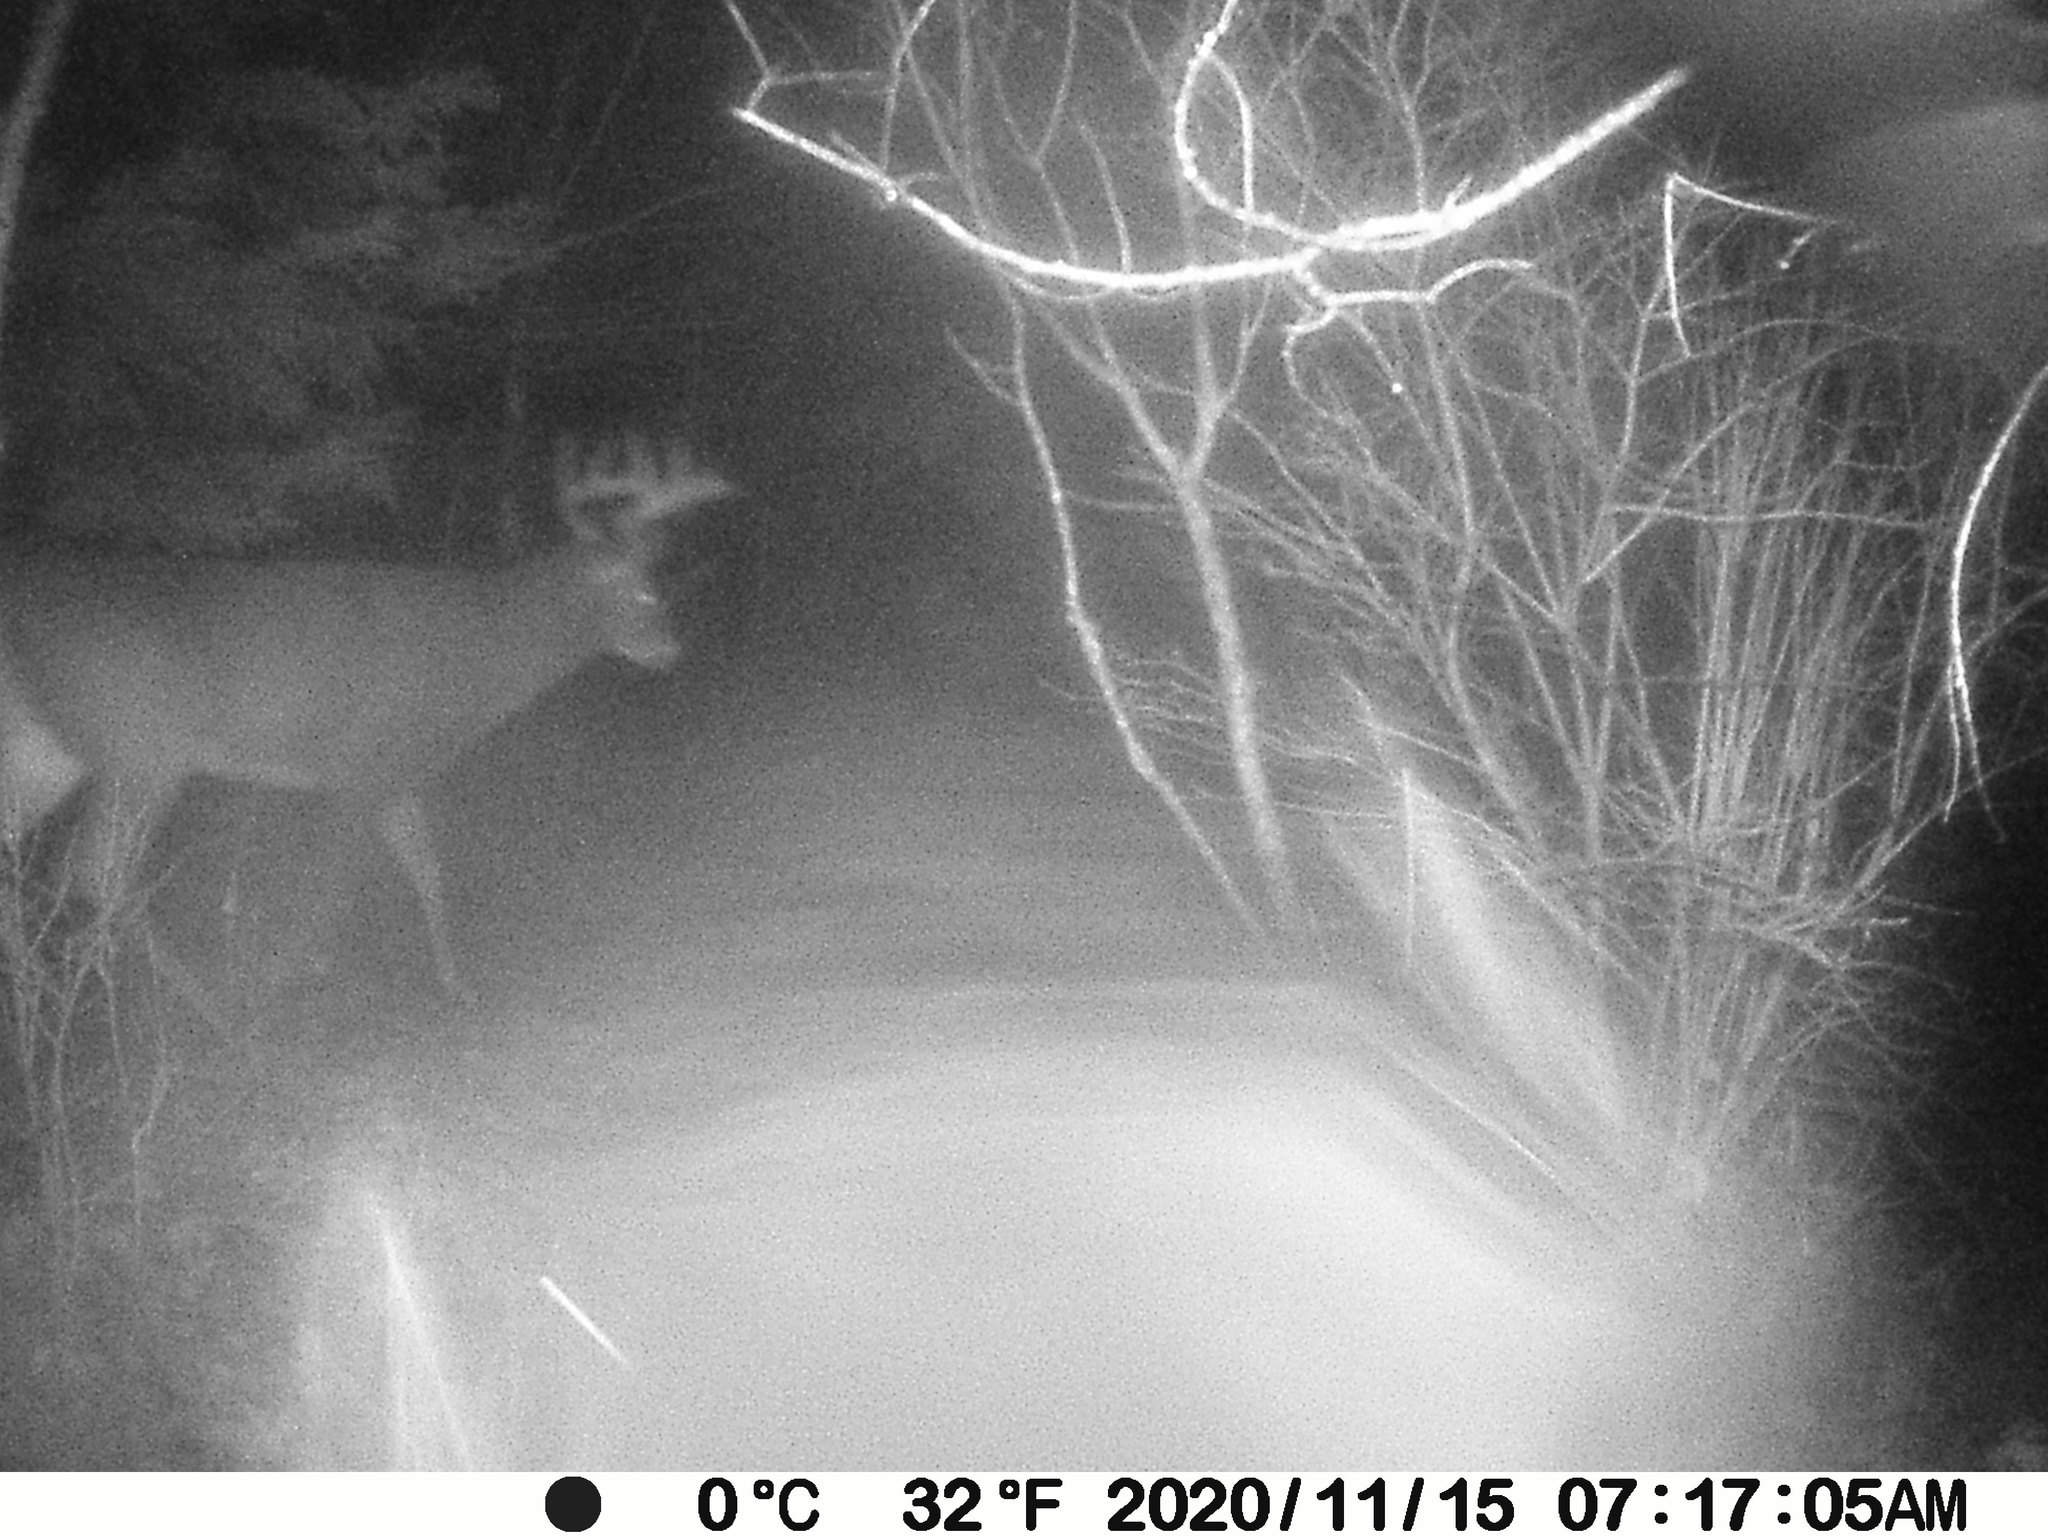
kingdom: Animalia
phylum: Chordata
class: Mammalia
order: Artiodactyla
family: Cervidae
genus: Odocoileus
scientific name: Odocoileus virginianus
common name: White-tailed deer
